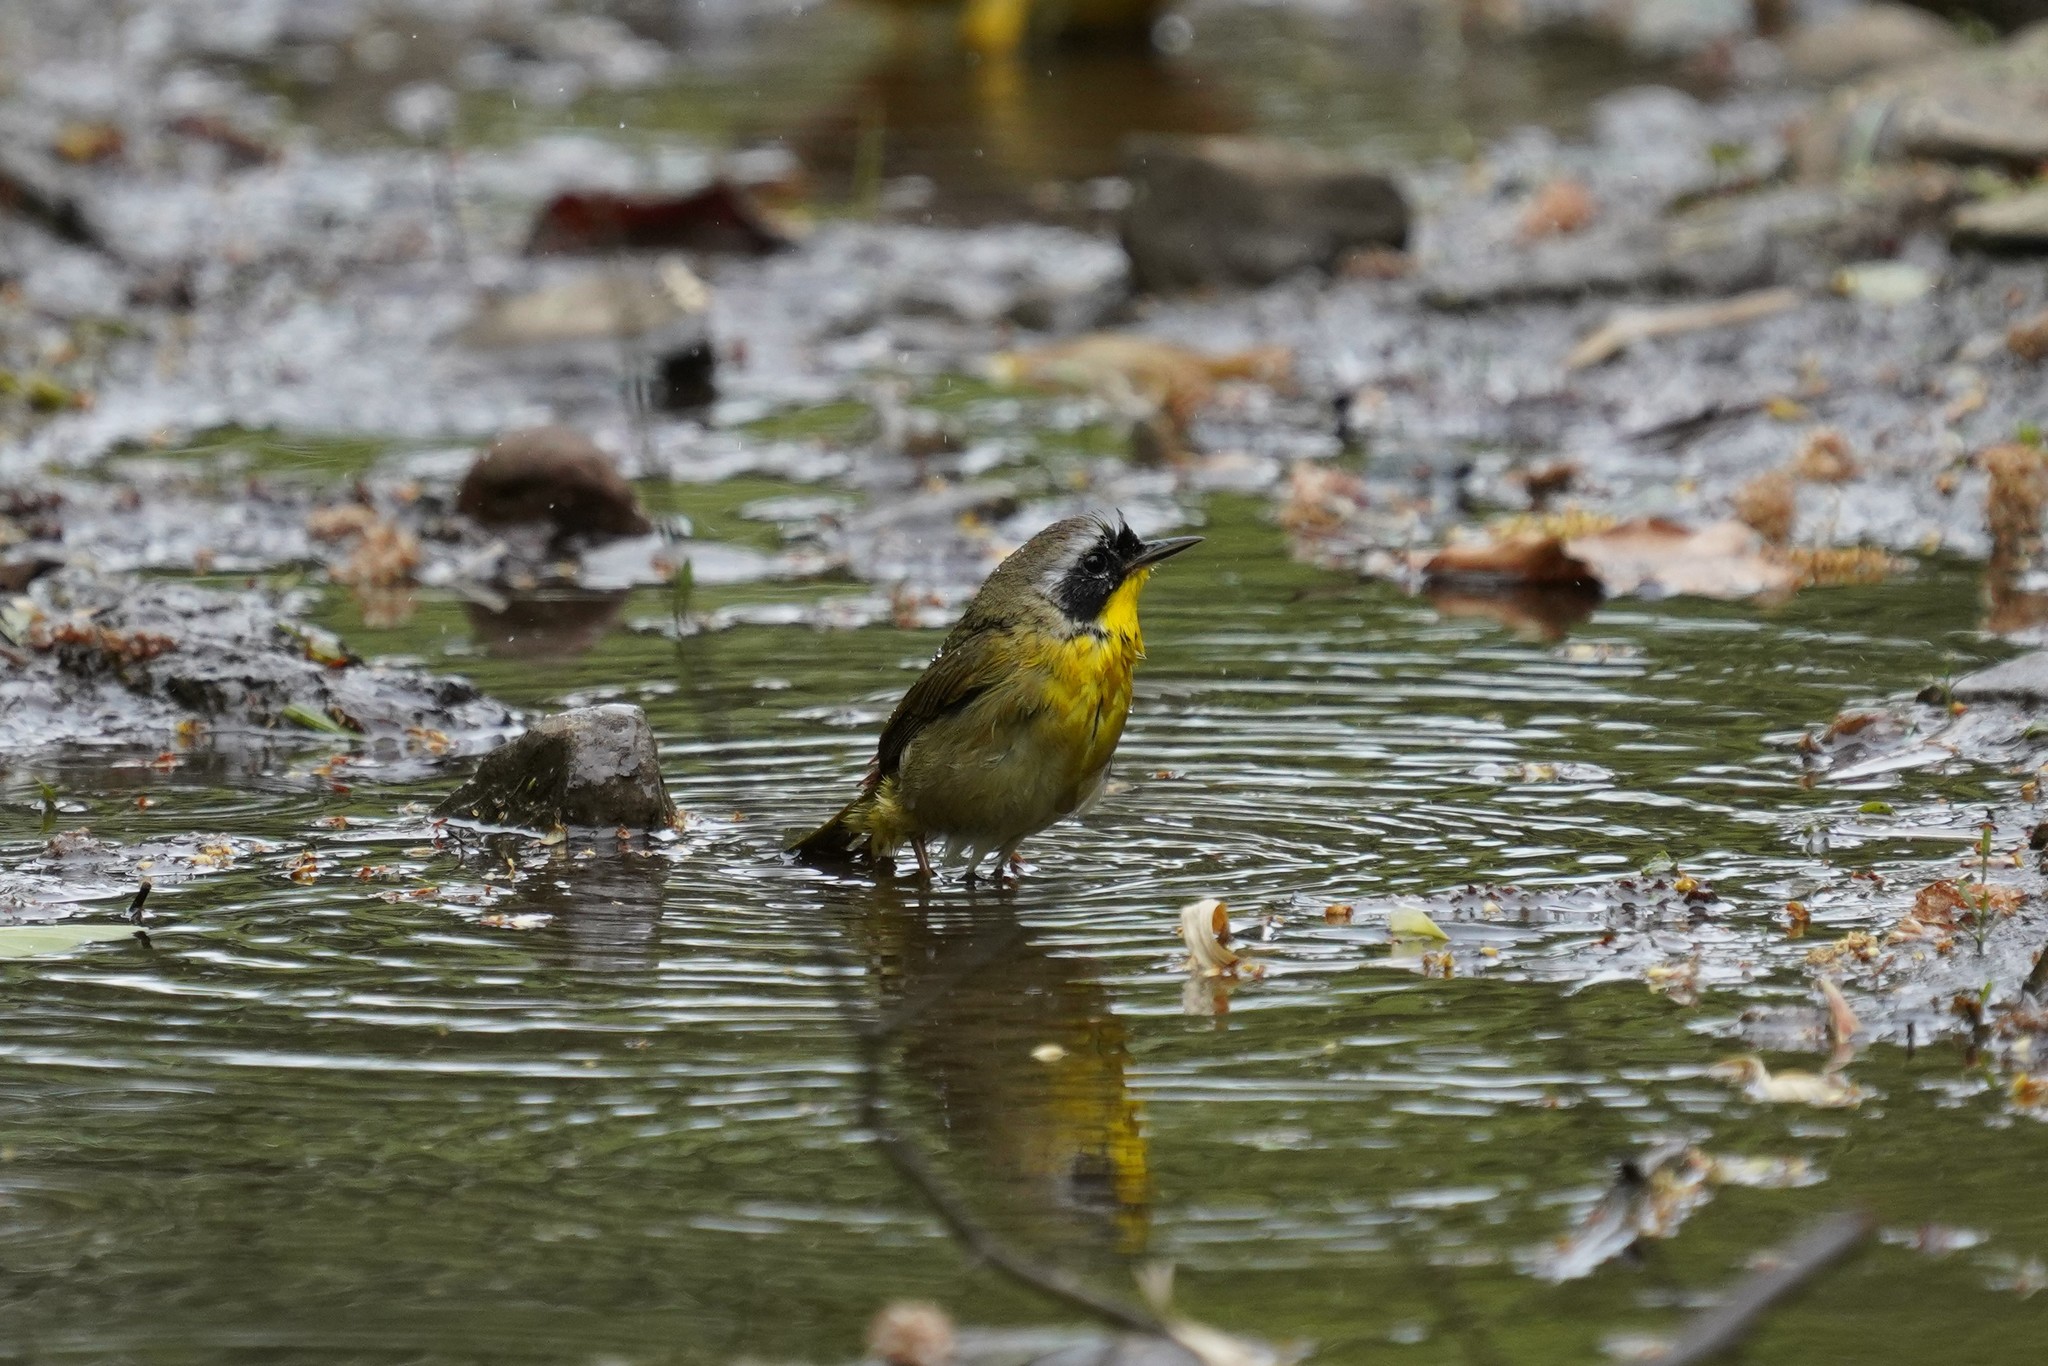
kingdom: Animalia
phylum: Chordata
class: Aves
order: Passeriformes
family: Parulidae
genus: Geothlypis
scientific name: Geothlypis trichas
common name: Common yellowthroat
